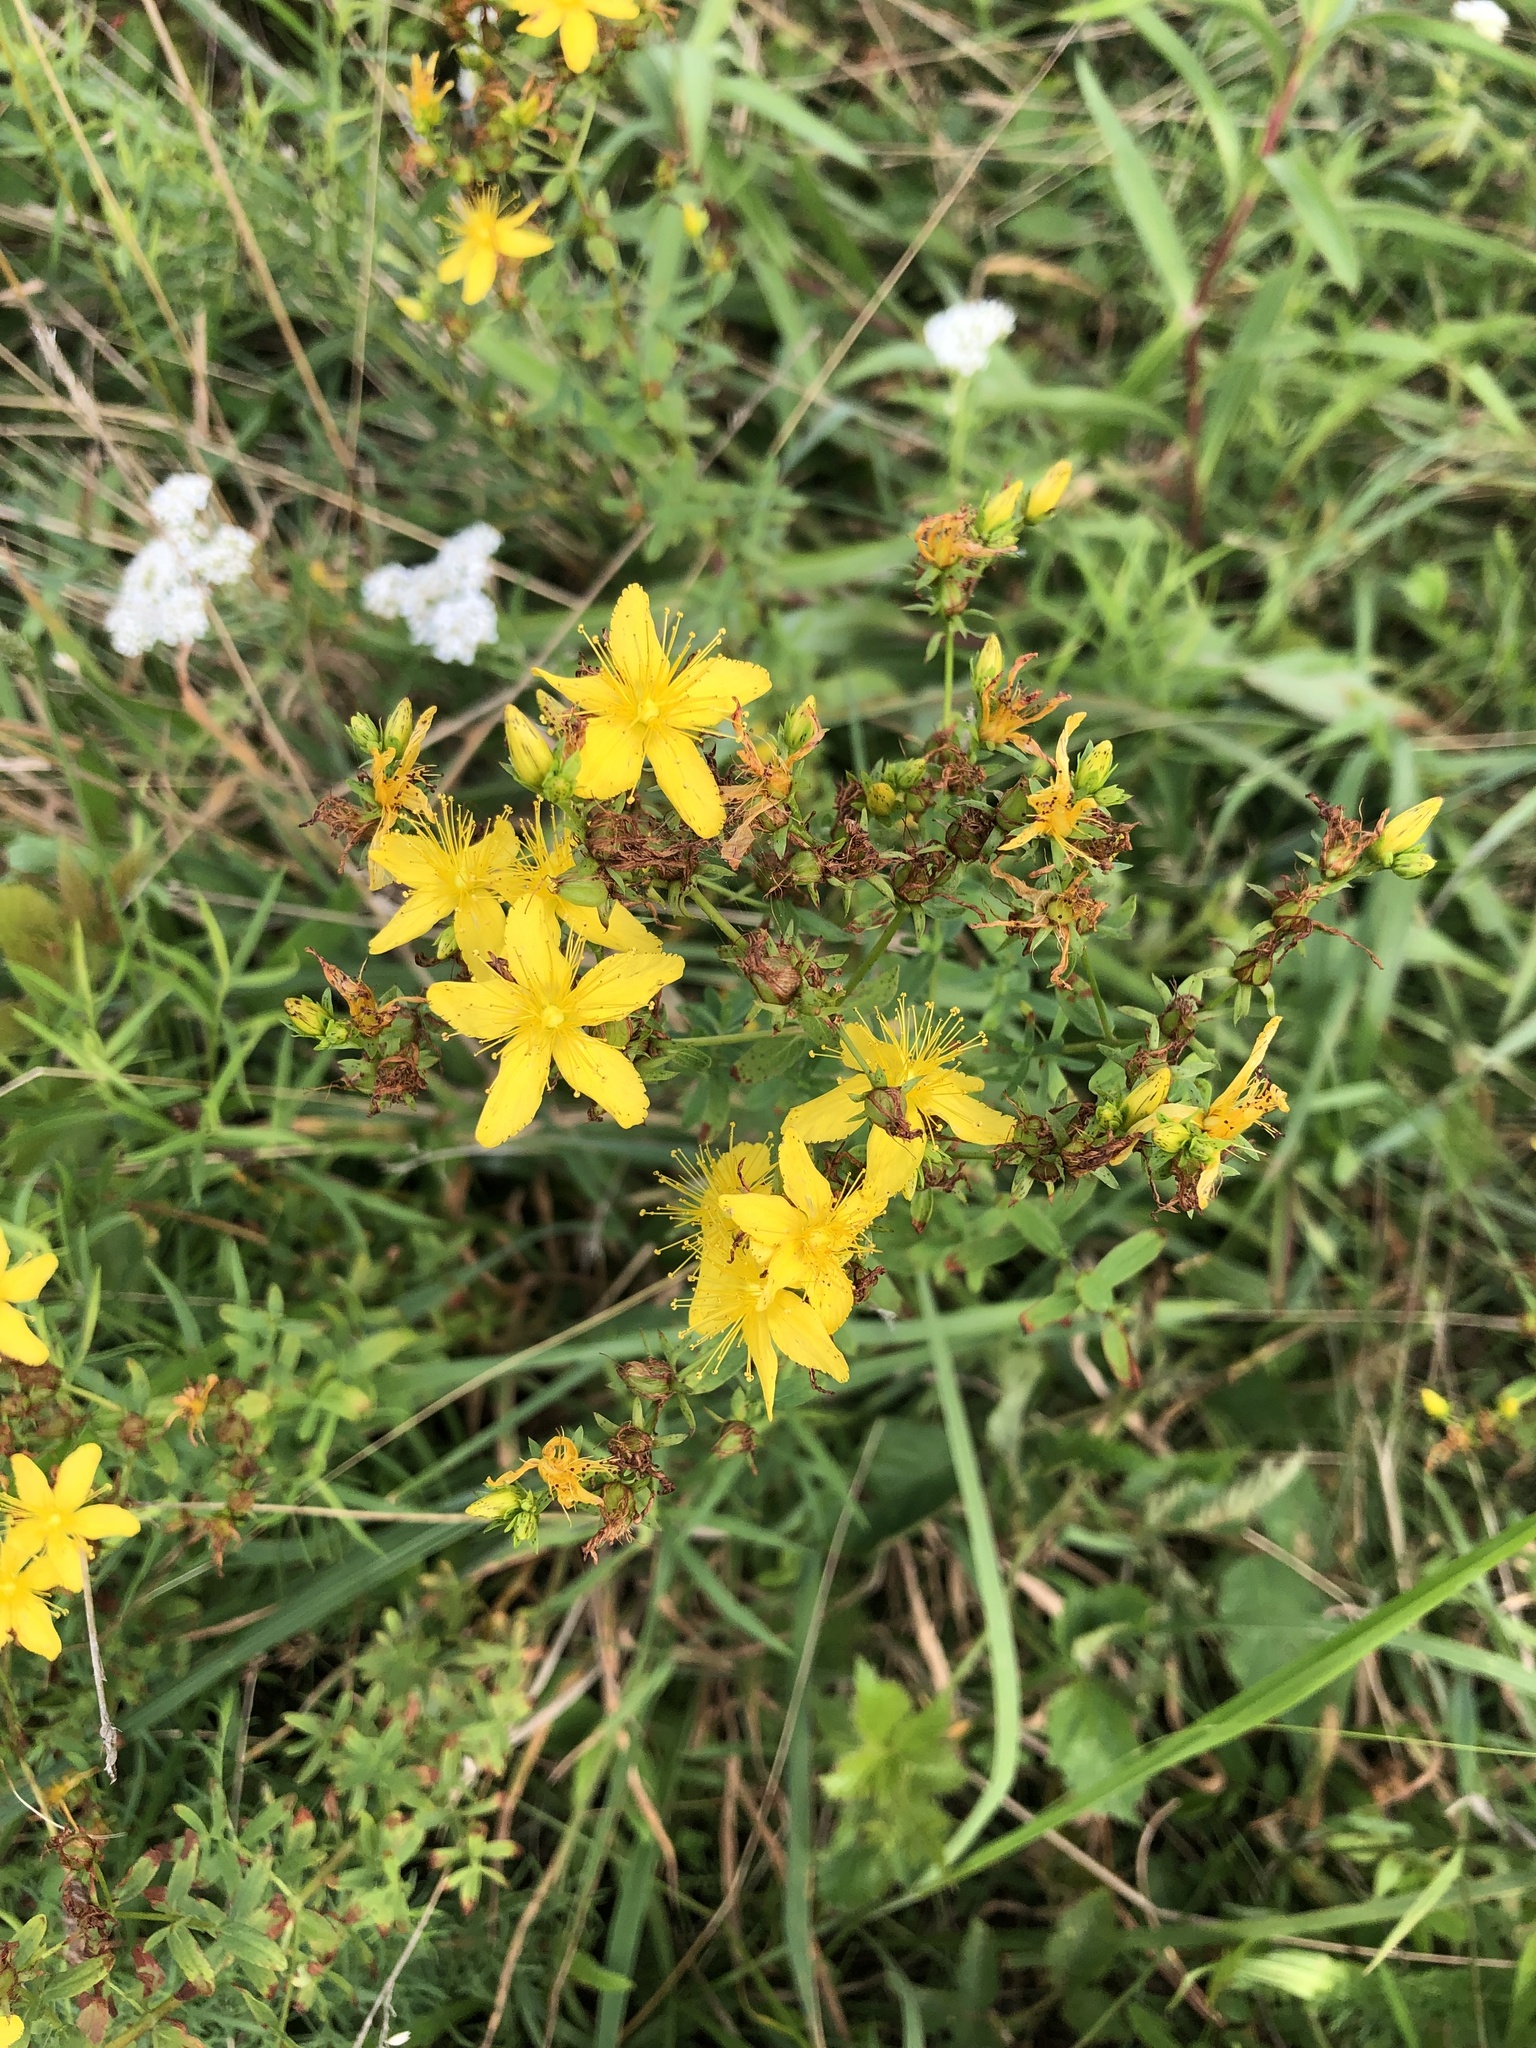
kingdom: Plantae
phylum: Tracheophyta
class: Magnoliopsida
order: Malpighiales
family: Hypericaceae
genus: Hypericum
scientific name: Hypericum perforatum
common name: Common st. johnswort
